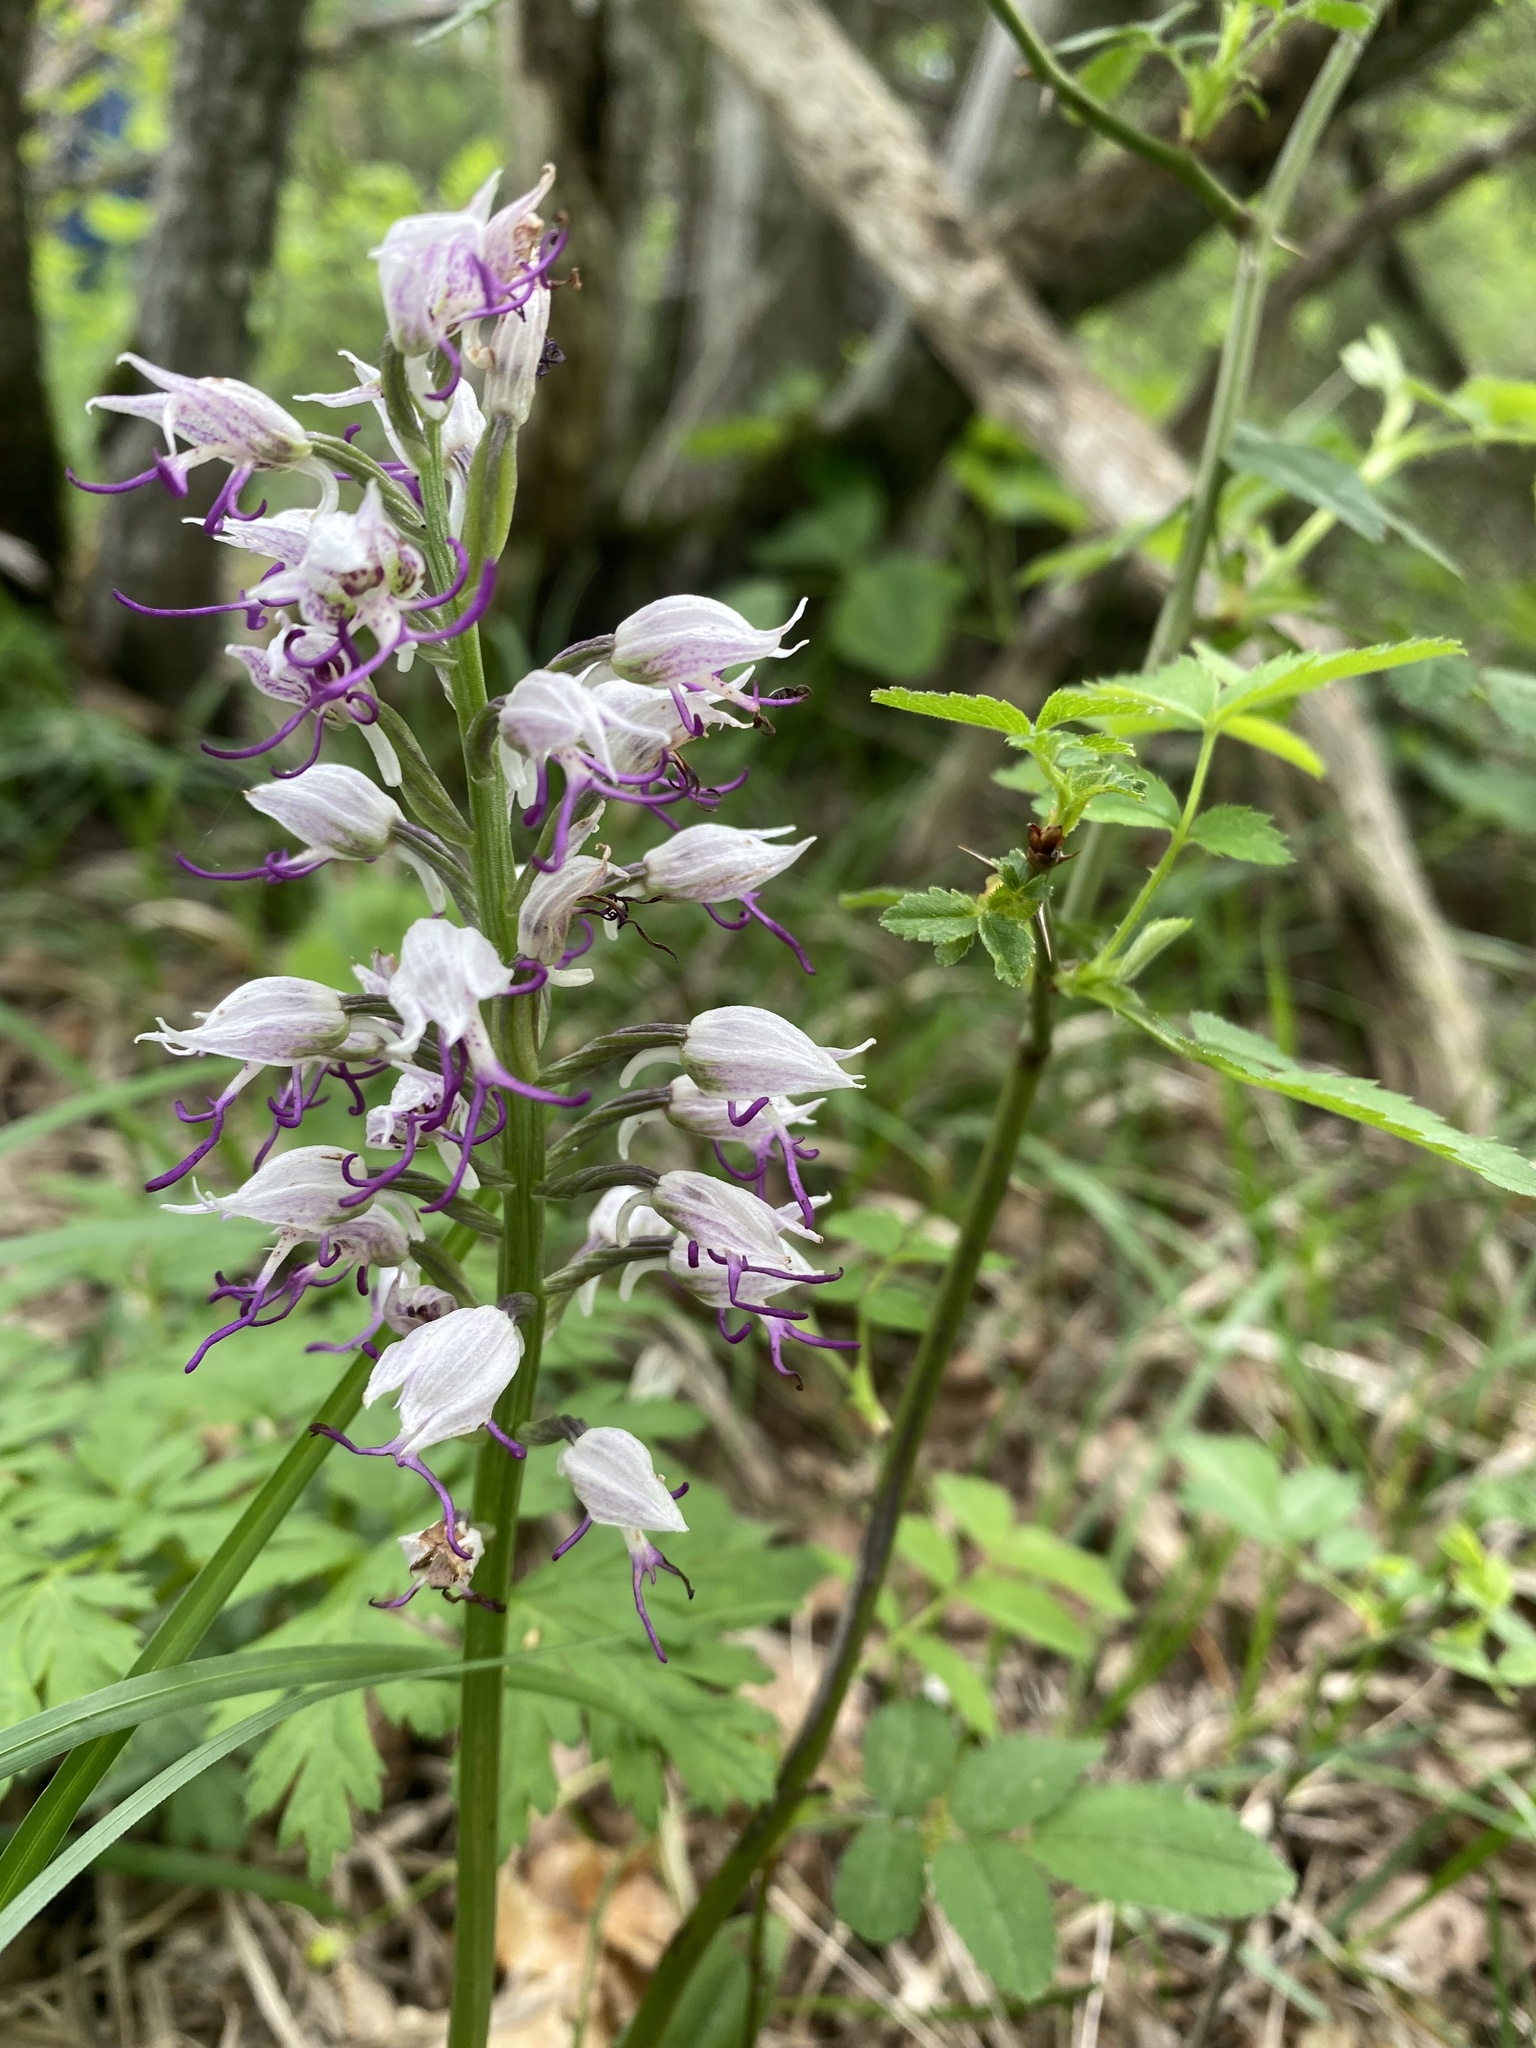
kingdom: Plantae
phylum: Tracheophyta
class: Liliopsida
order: Asparagales
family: Orchidaceae
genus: Orchis
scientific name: Orchis simia
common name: Monkey orchid
